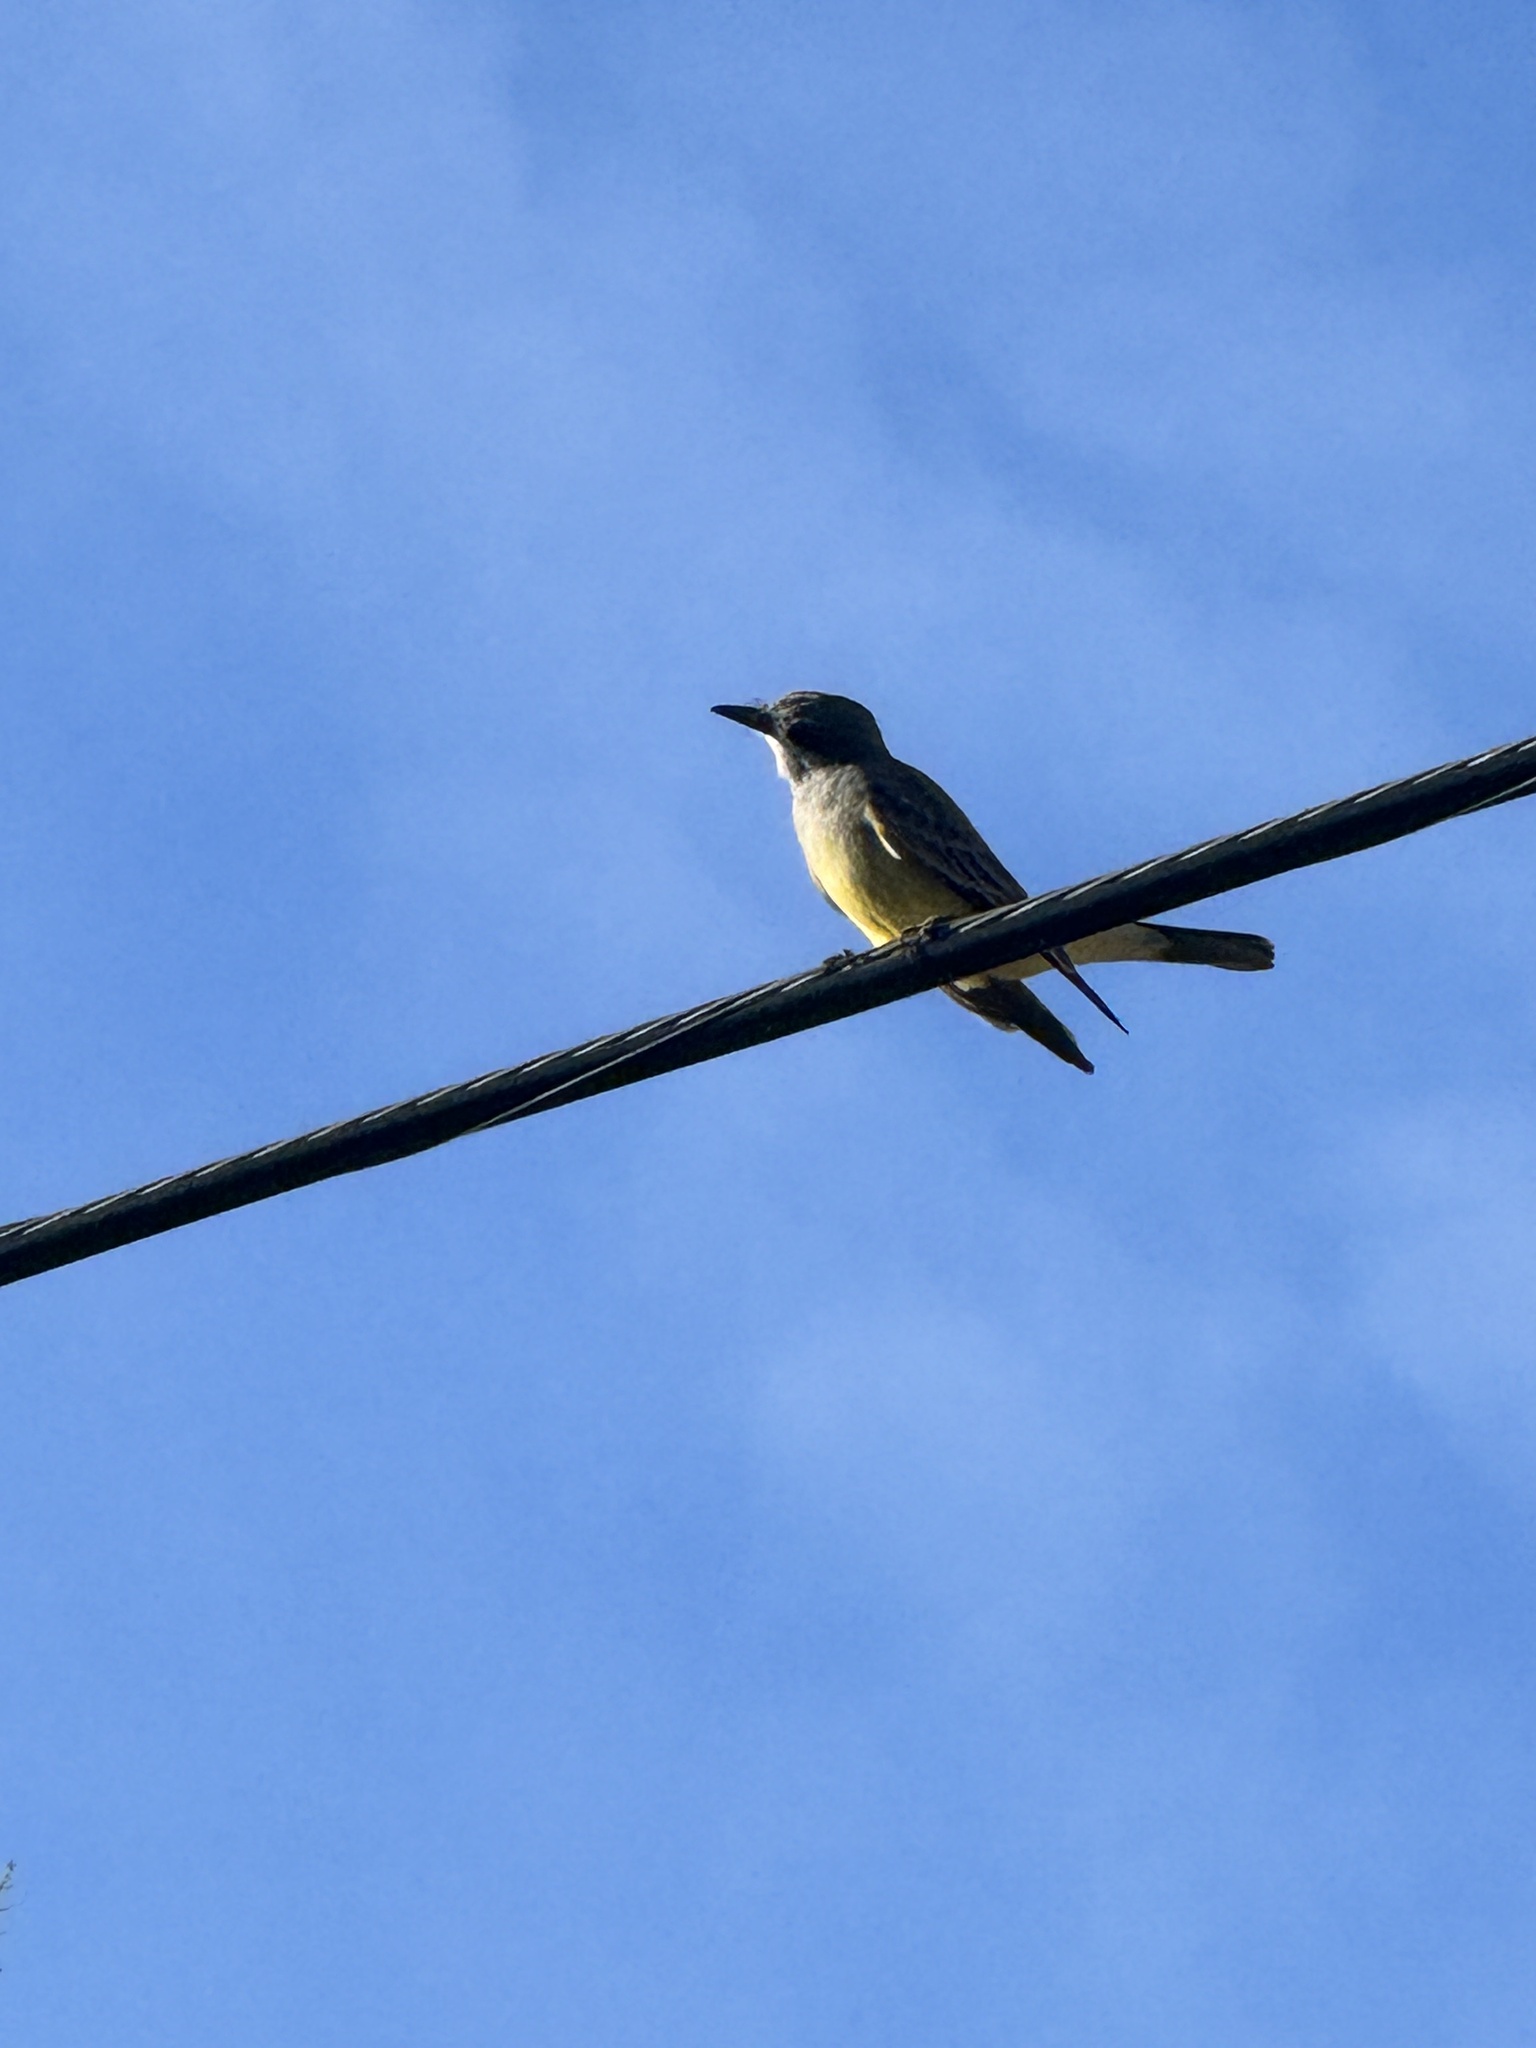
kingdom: Animalia
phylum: Chordata
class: Aves
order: Passeriformes
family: Tyrannidae
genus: Tyrannus
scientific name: Tyrannus vociferans
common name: Cassin's kingbird
